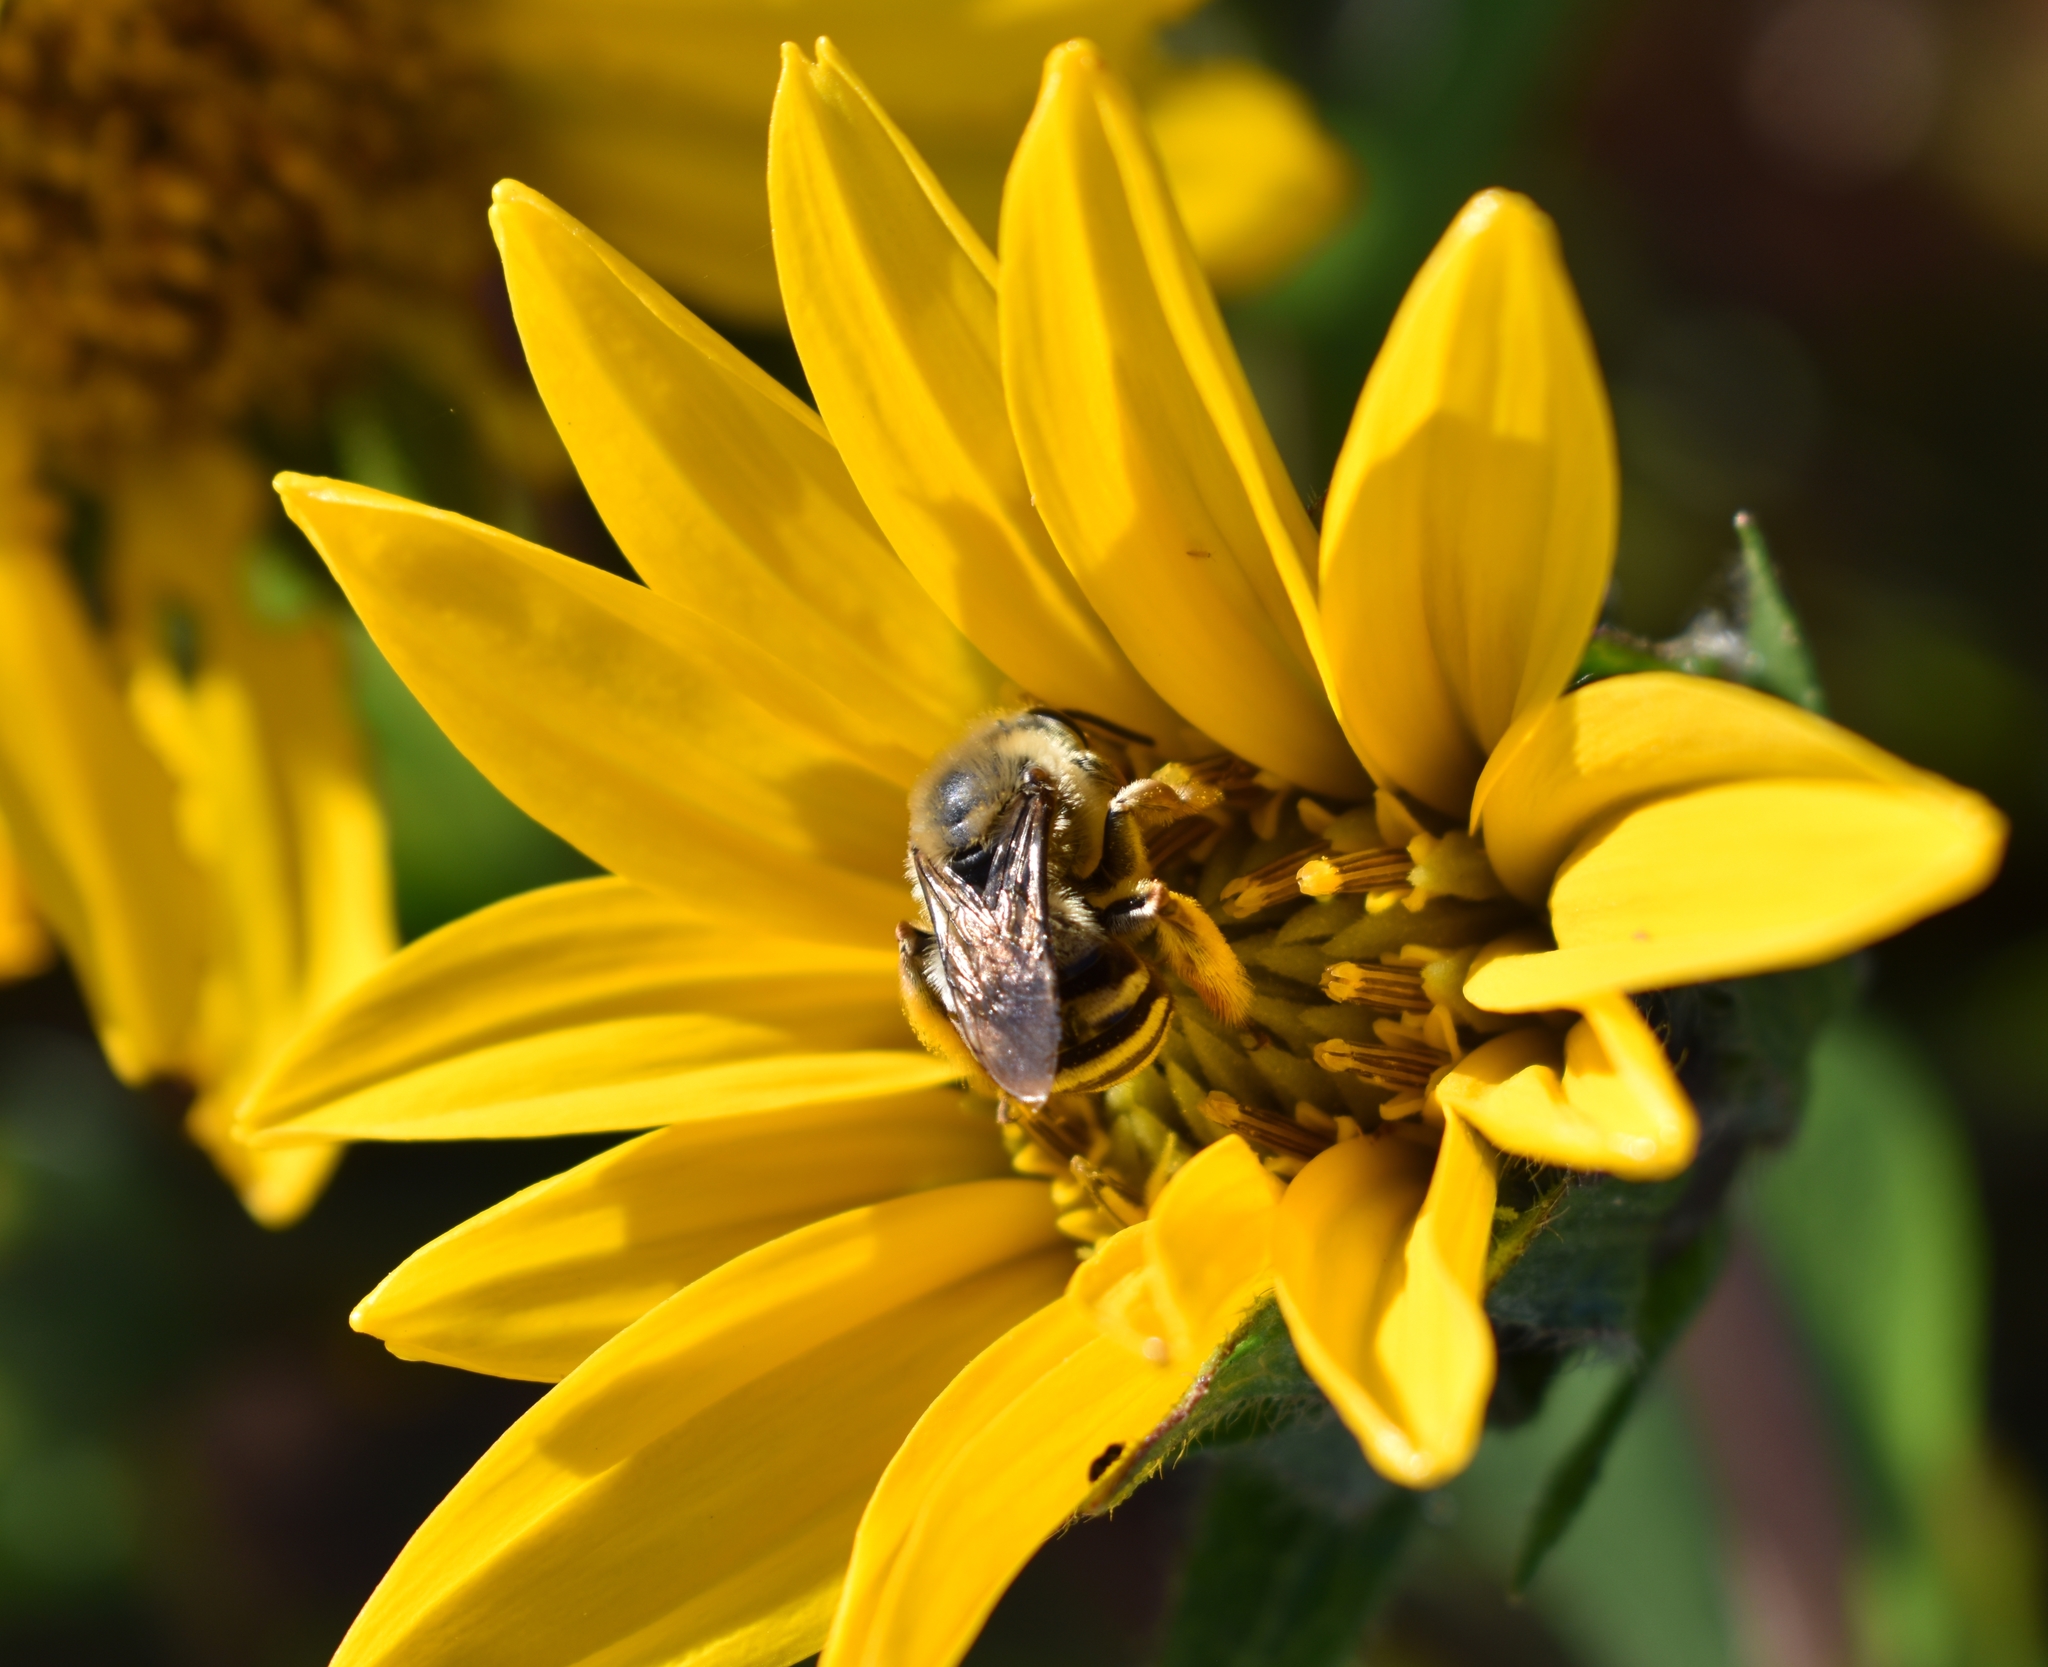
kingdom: Animalia
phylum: Arthropoda
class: Insecta
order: Hymenoptera
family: Apidae
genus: Apidae
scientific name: Apidae
